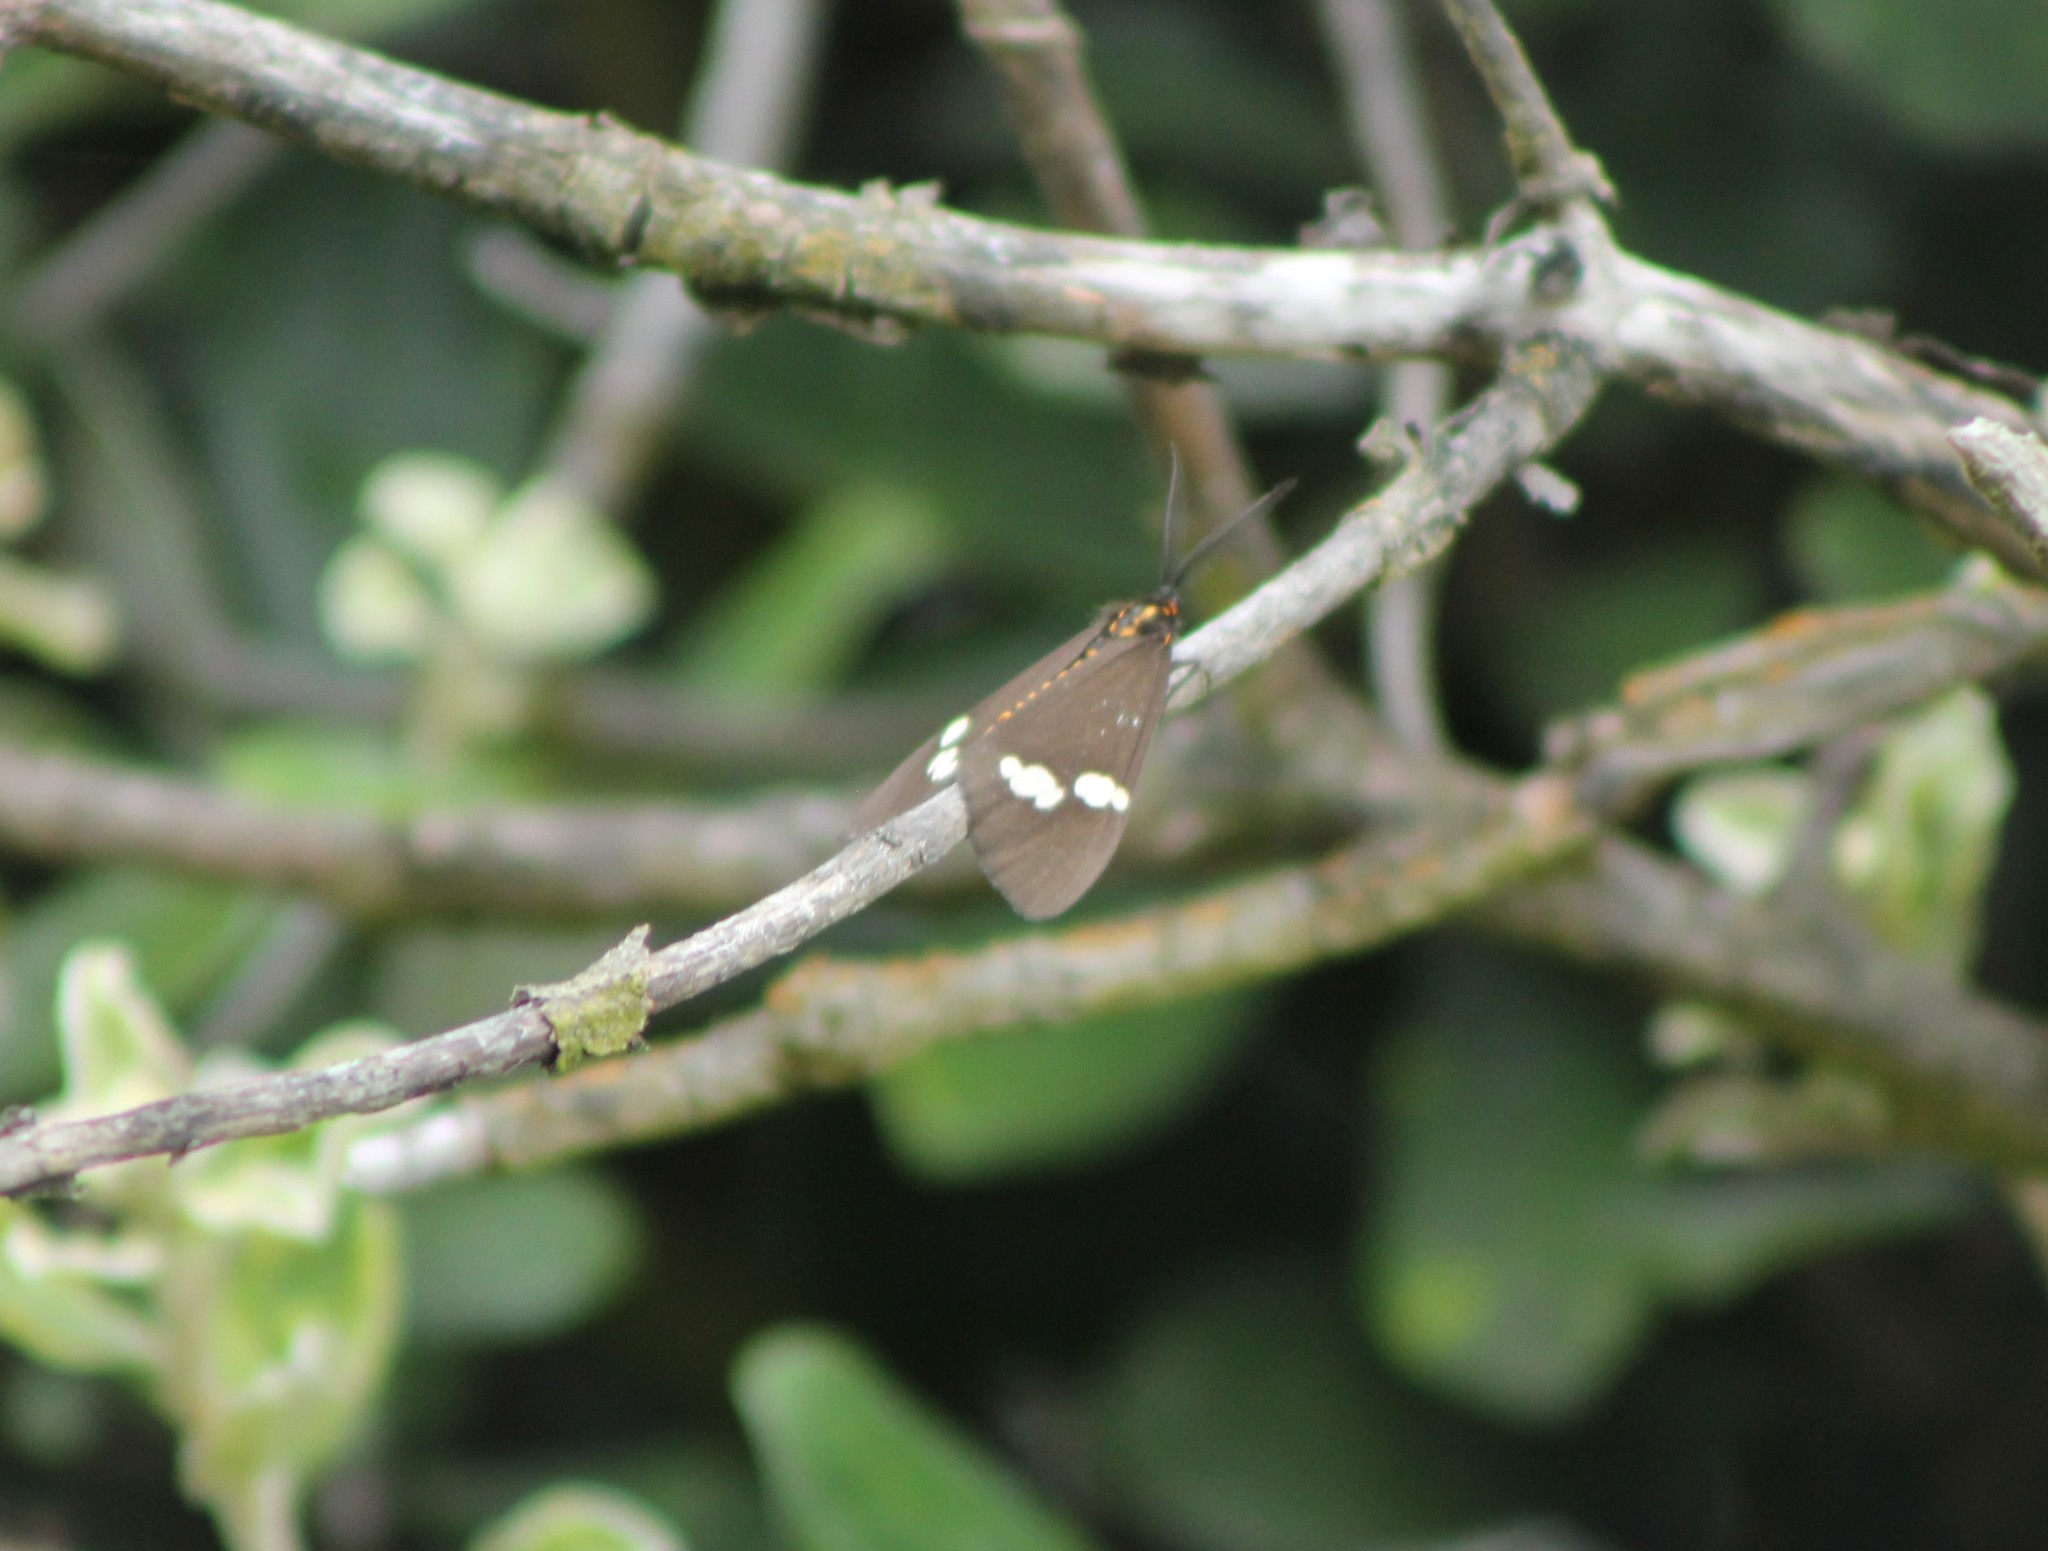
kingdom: Animalia
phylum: Arthropoda
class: Insecta
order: Lepidoptera
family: Erebidae
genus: Nyctemera
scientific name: Nyctemera annulatum
